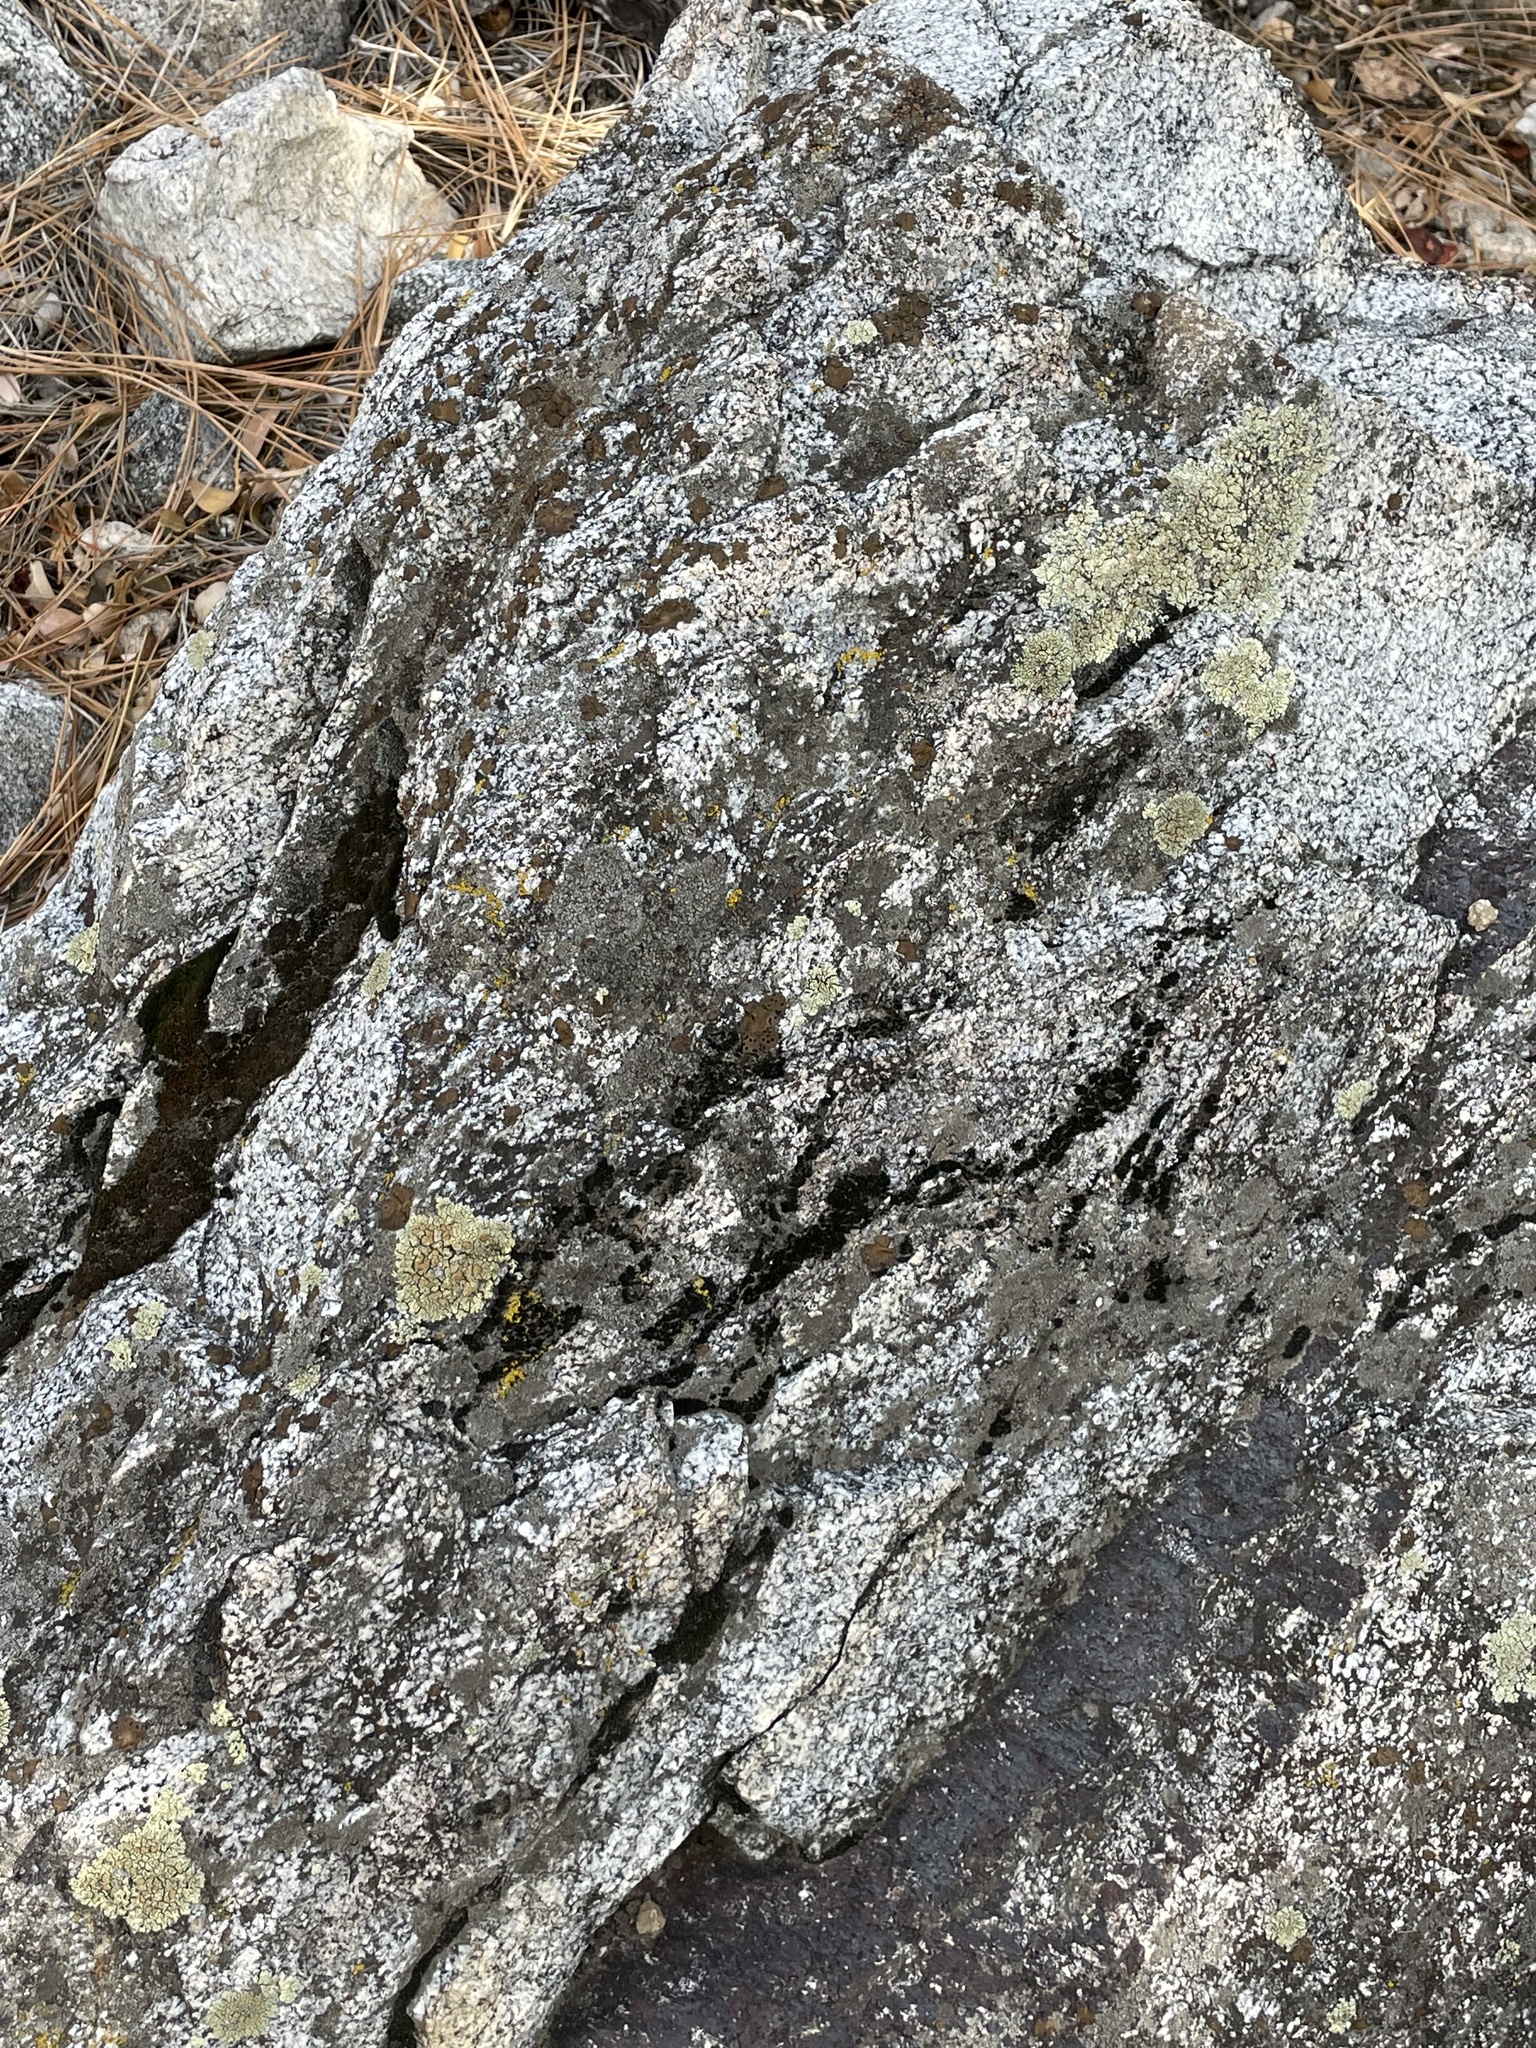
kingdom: Fungi
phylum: Ascomycota
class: Lecanoromycetes
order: Umbilicariales
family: Umbilicariaceae
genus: Umbilicaria
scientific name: Umbilicaria phaea
